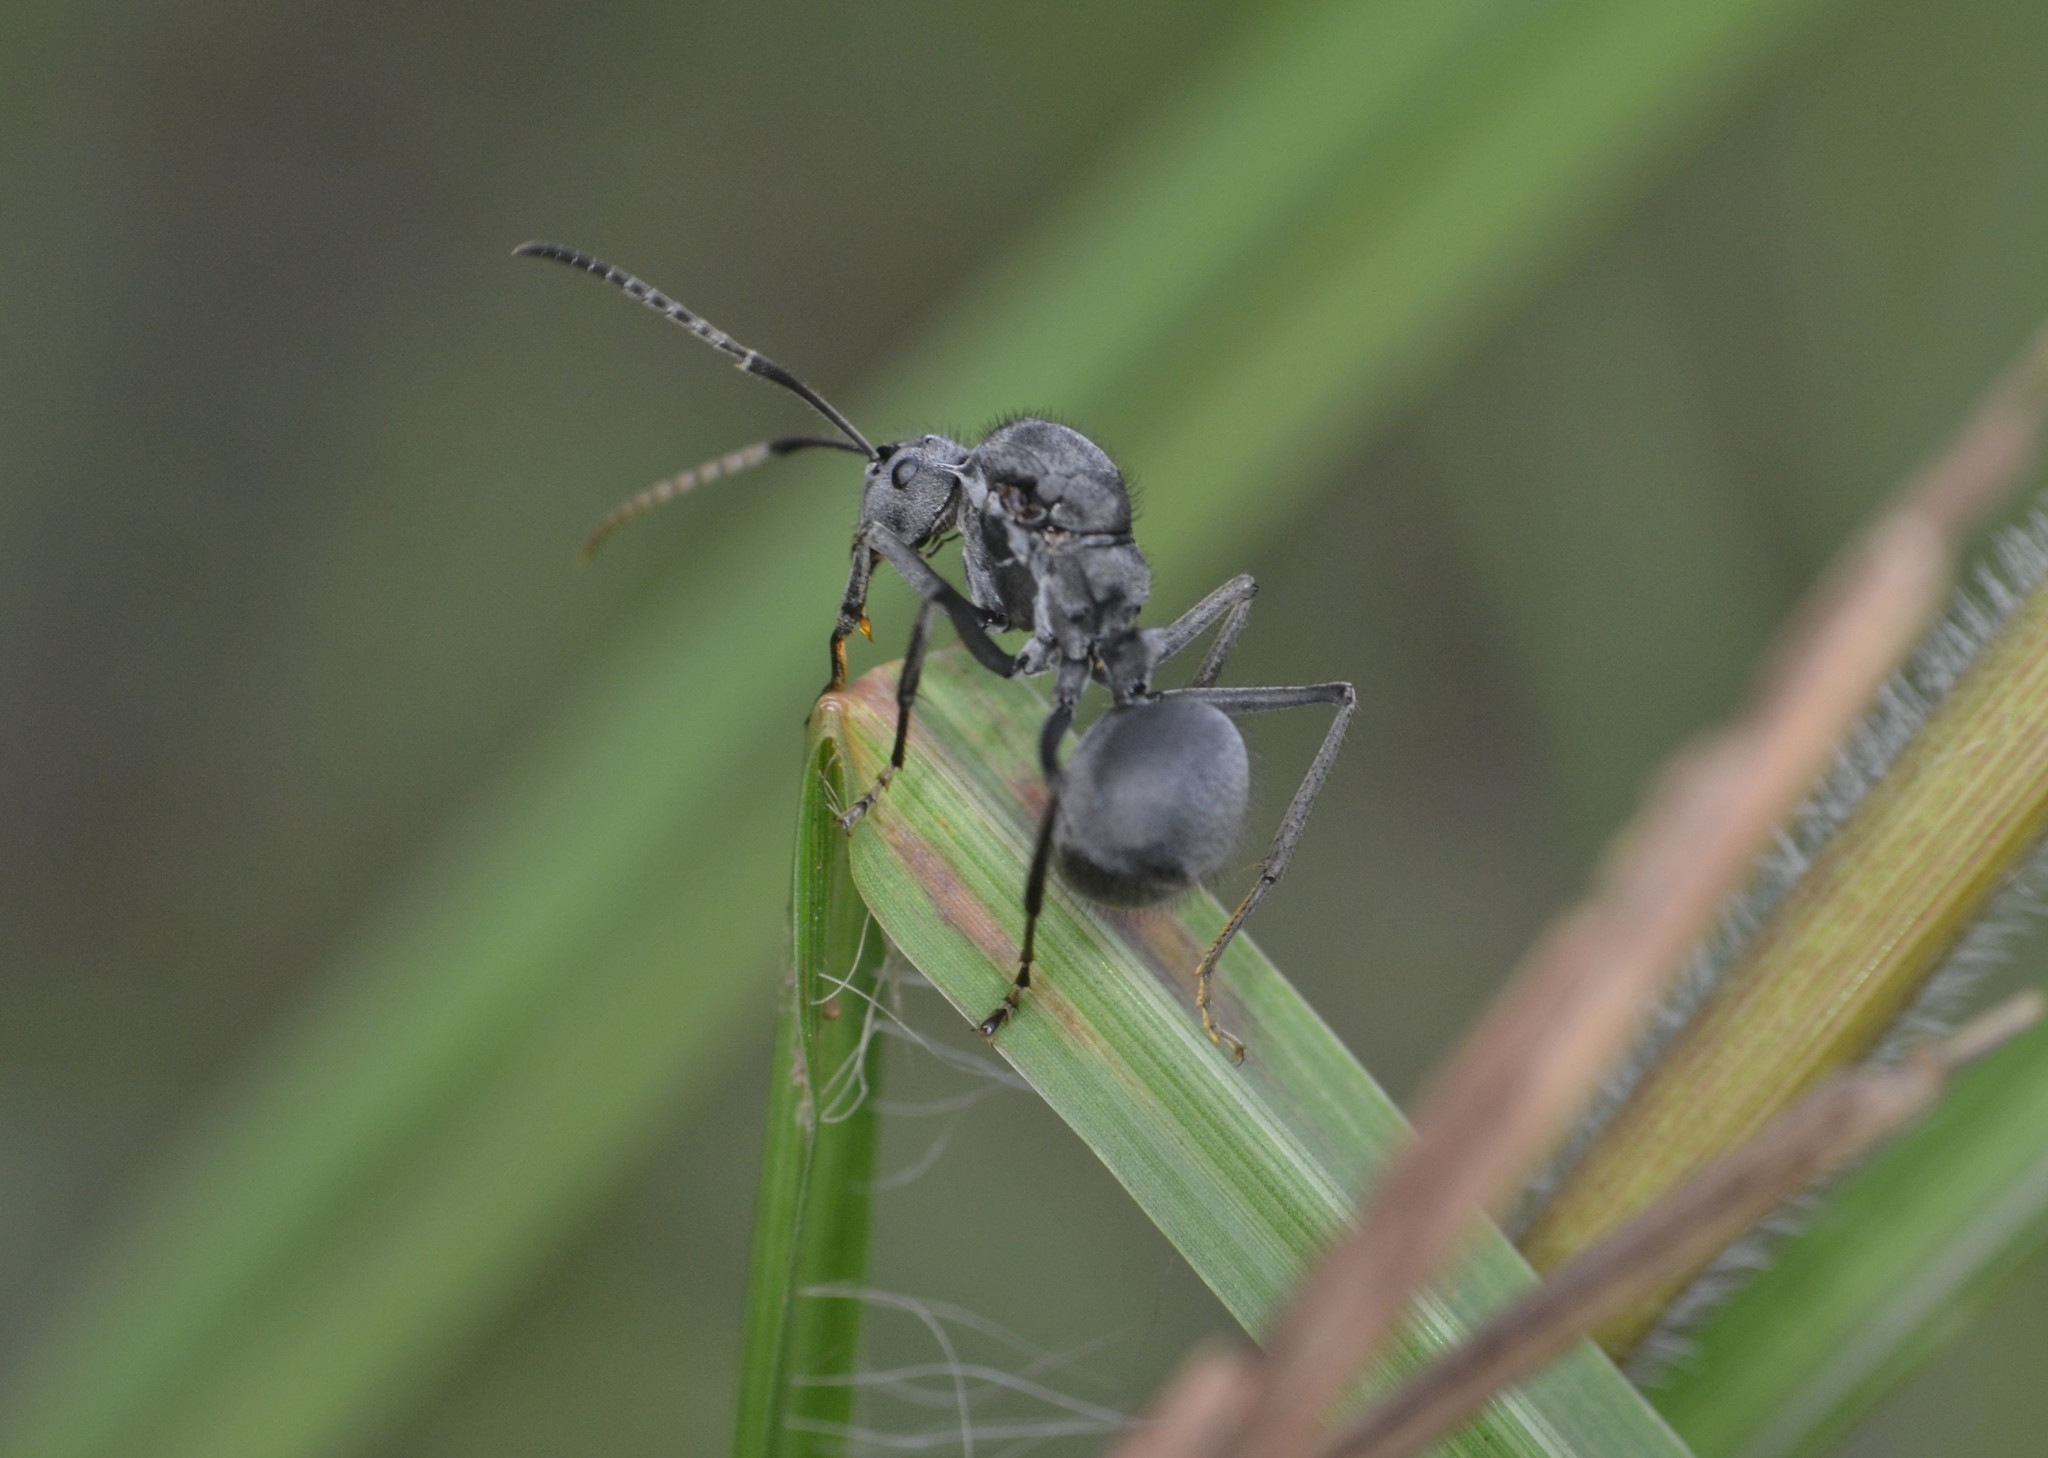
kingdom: Animalia
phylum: Arthropoda
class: Insecta
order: Hymenoptera
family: Formicidae
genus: Polyrhachis
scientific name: Polyrhachis schistacea
